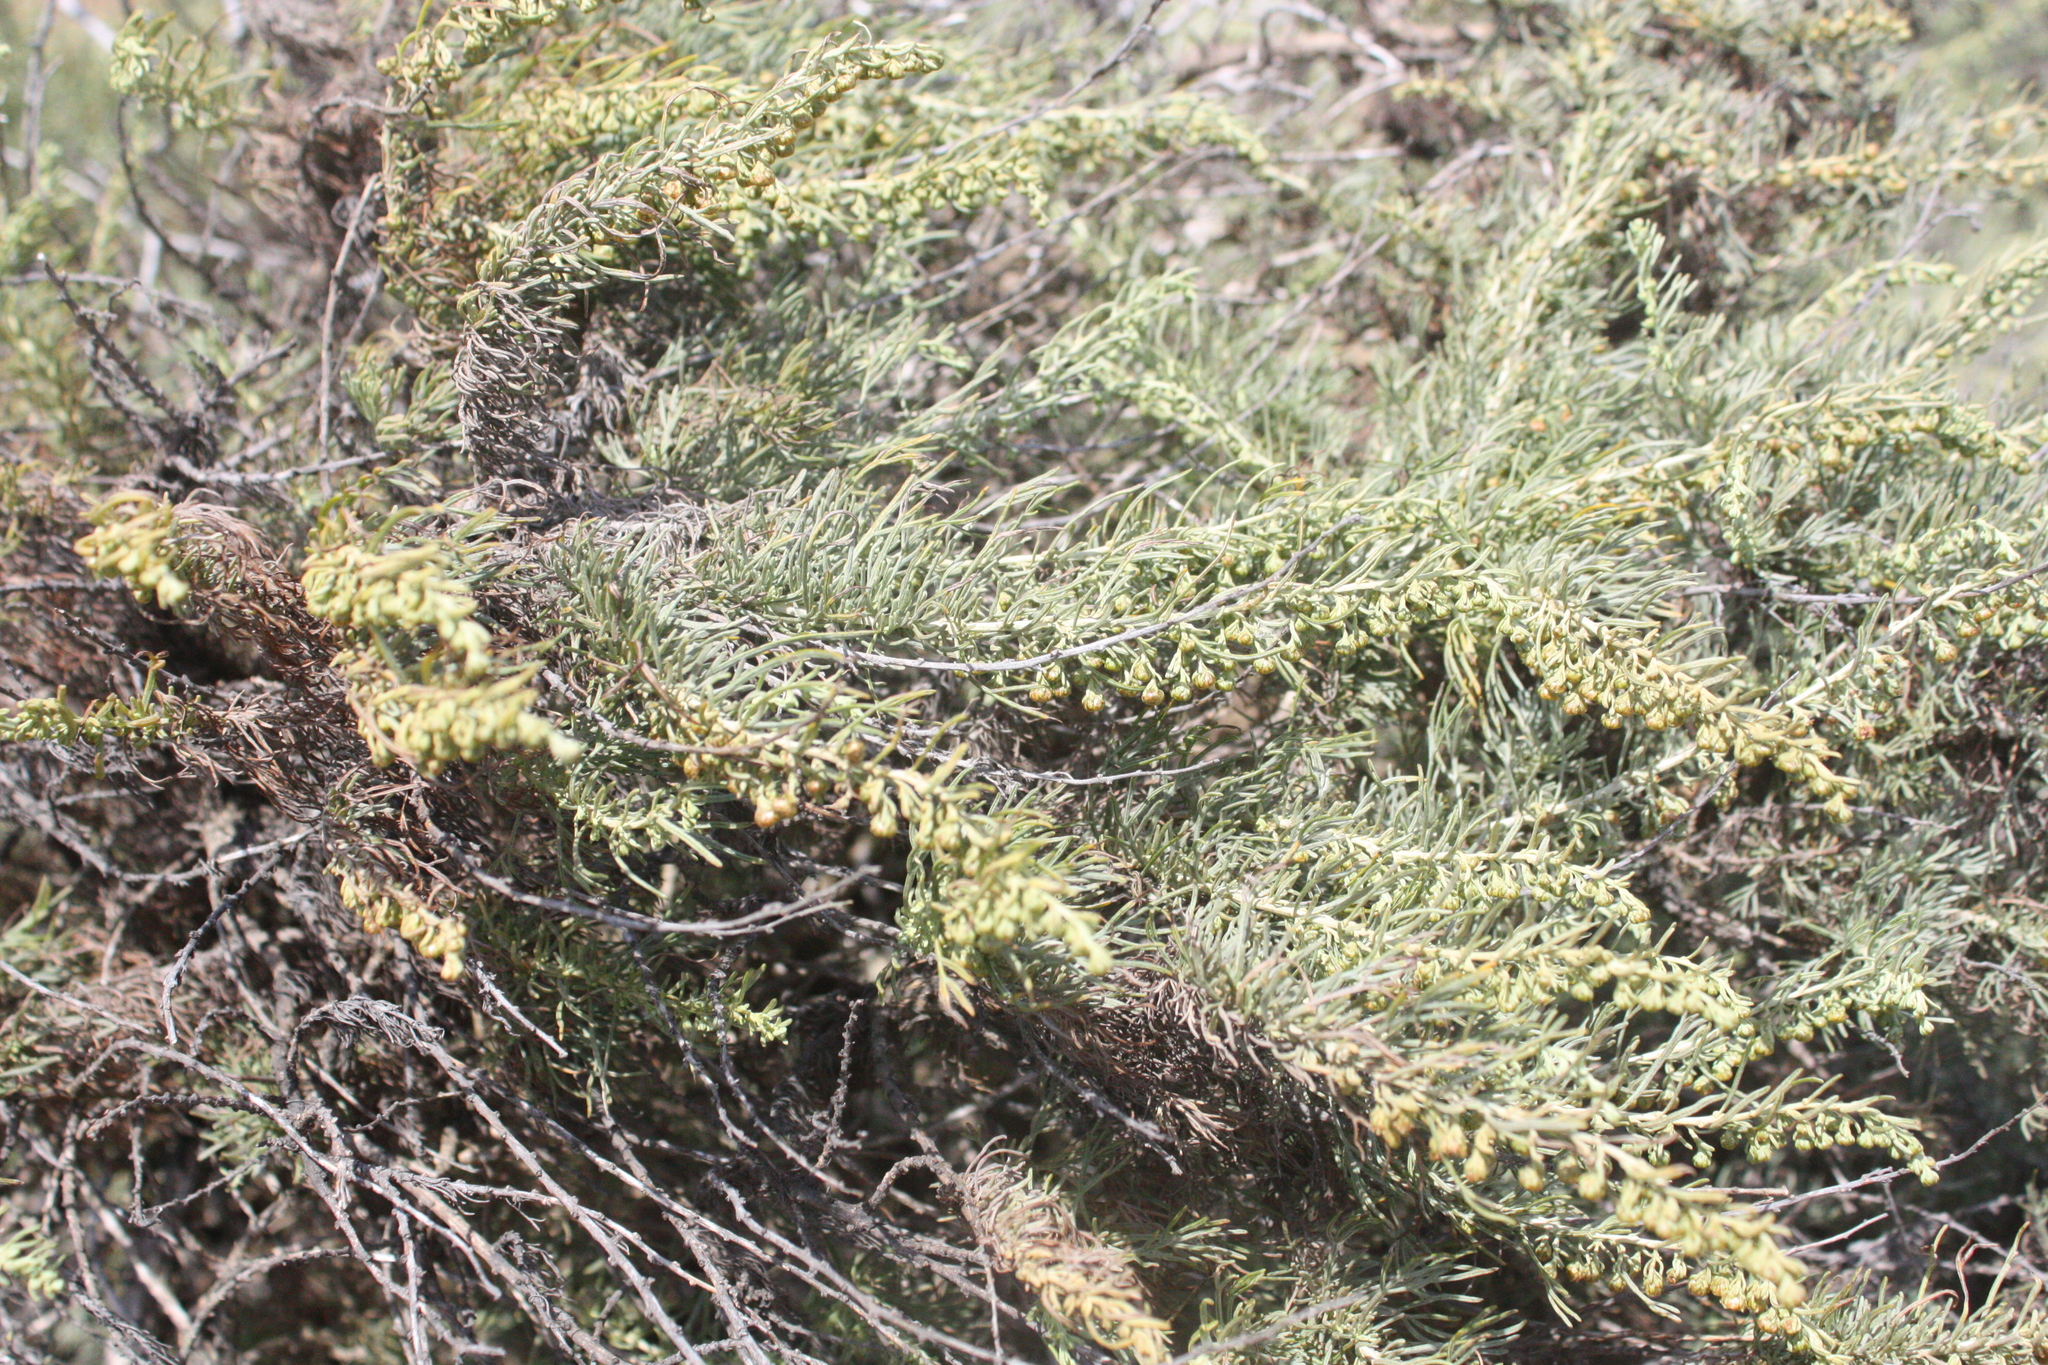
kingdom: Plantae
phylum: Tracheophyta
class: Magnoliopsida
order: Asterales
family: Asteraceae
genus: Artemisia
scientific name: Artemisia californica
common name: California sagebrush
